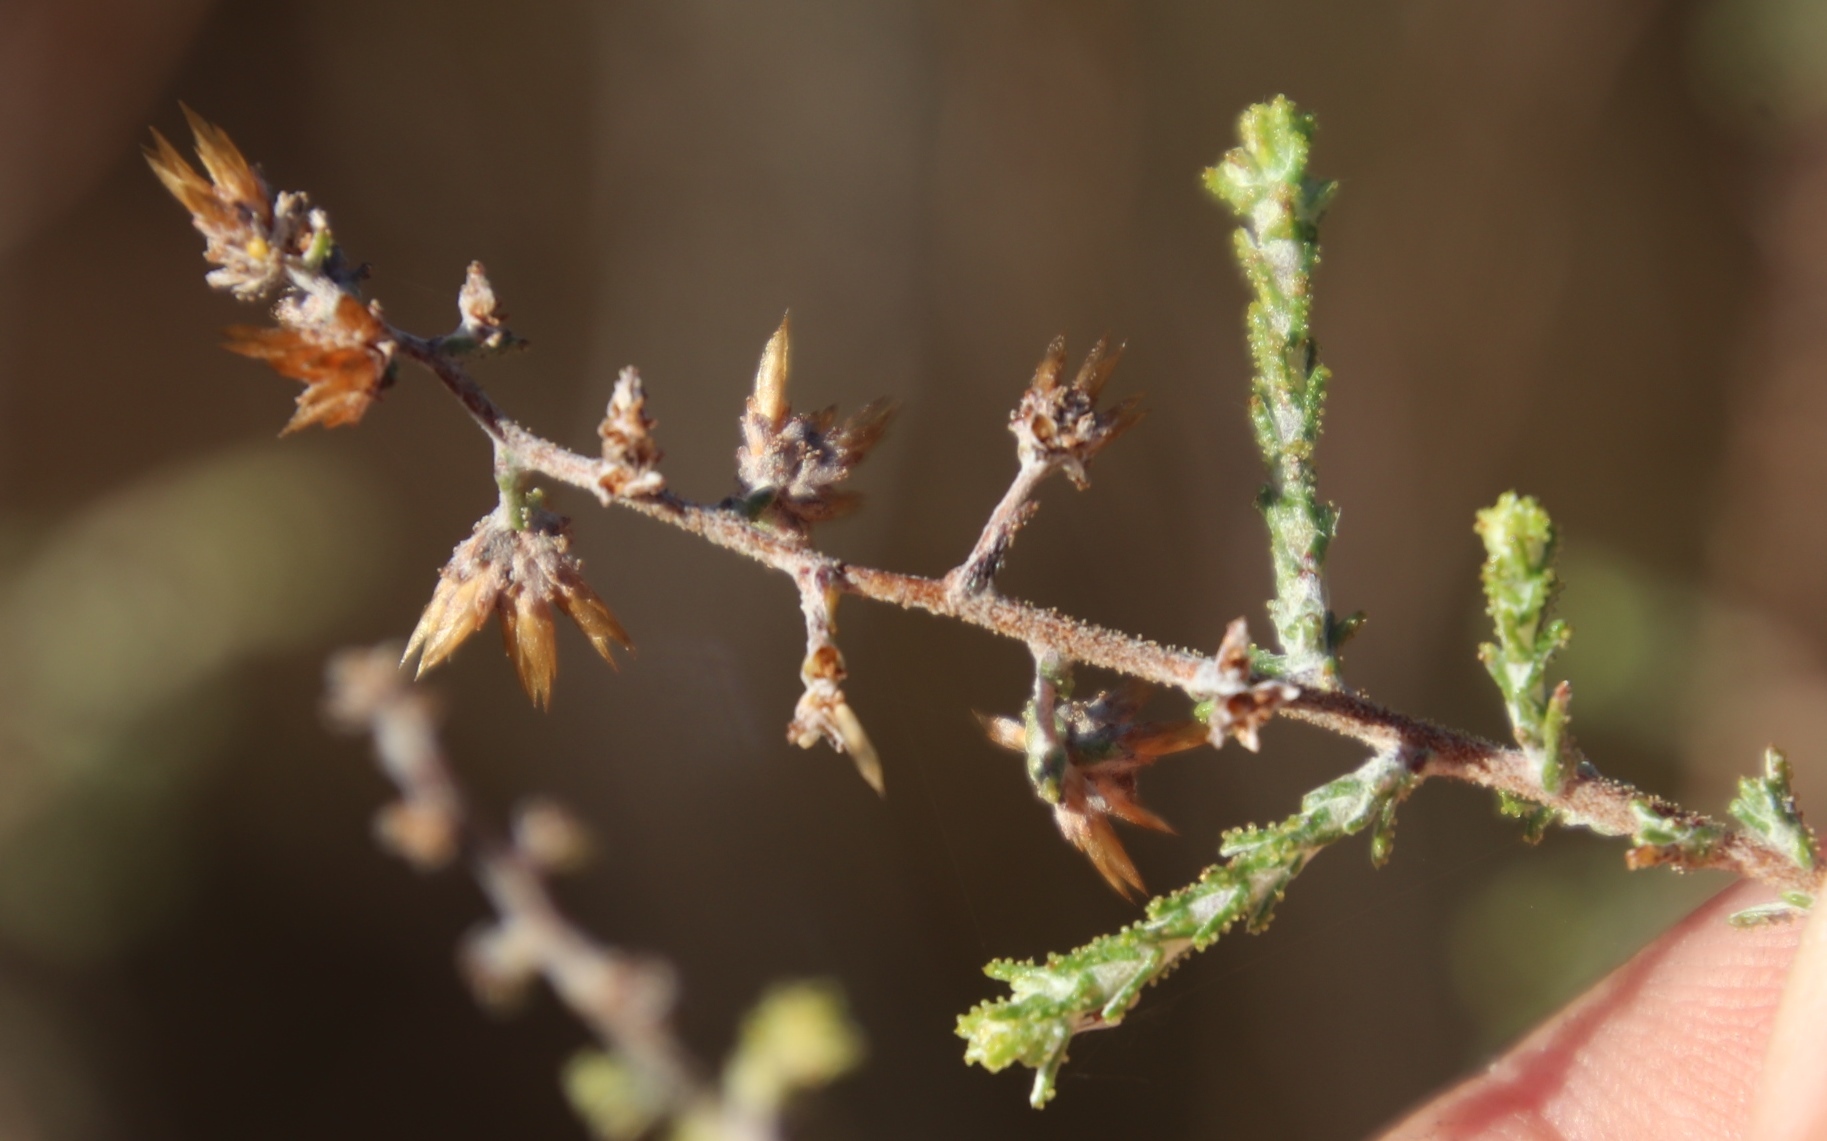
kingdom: Plantae
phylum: Tracheophyta
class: Magnoliopsida
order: Asterales
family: Asteraceae
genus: Myrovernix
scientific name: Myrovernix intricata
